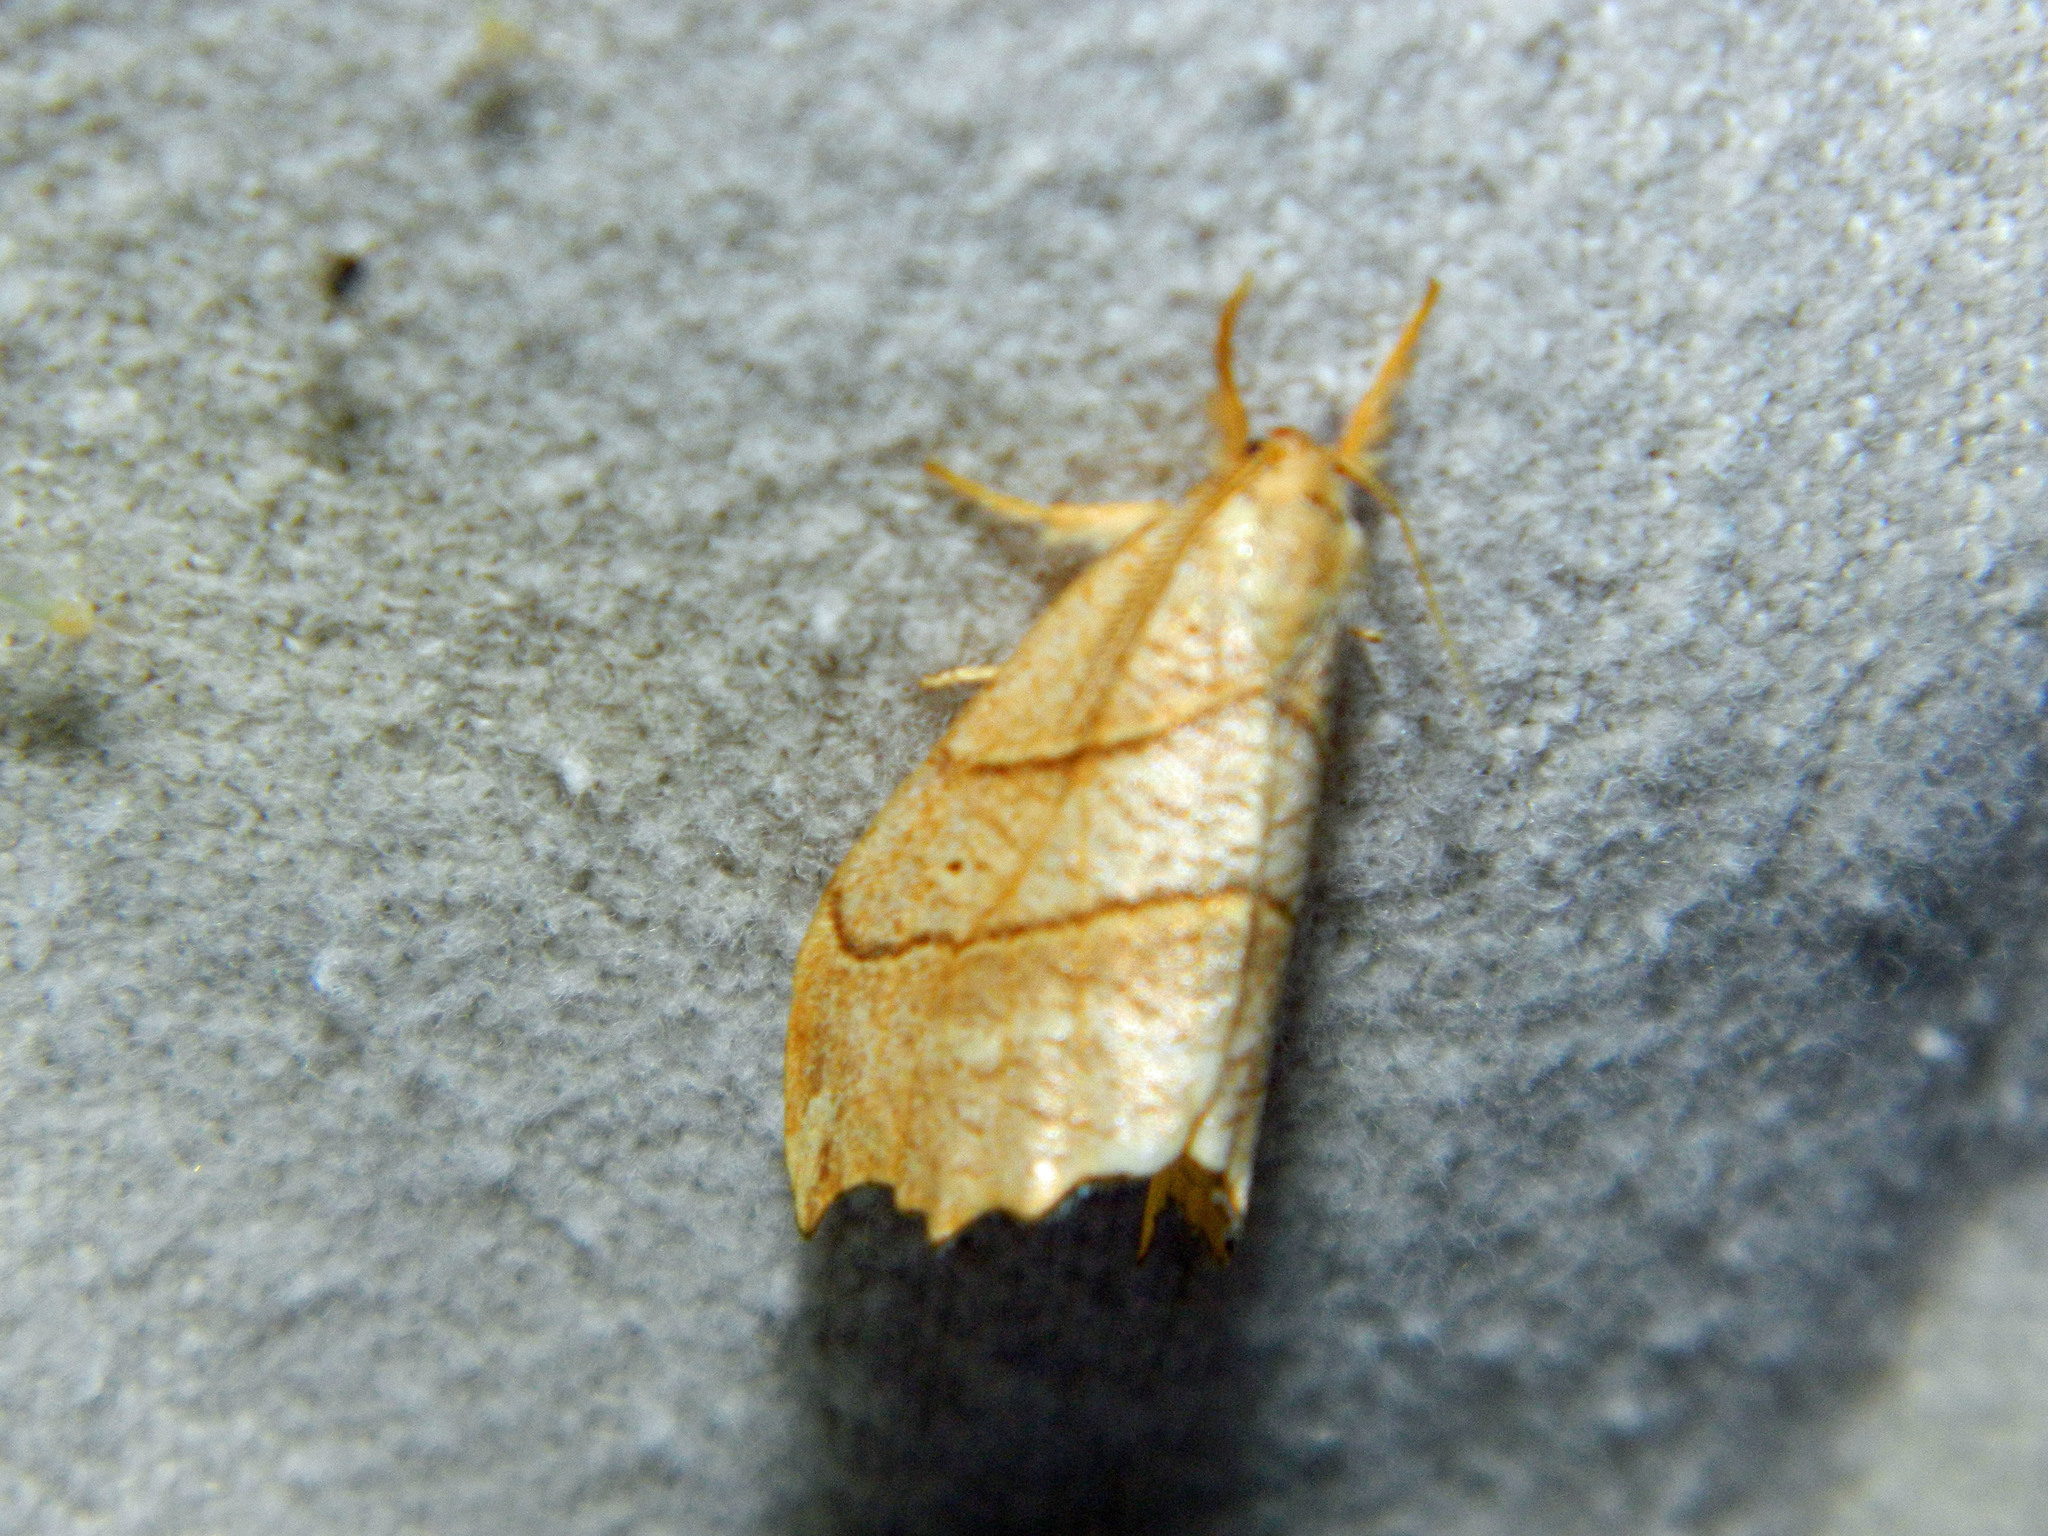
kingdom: Animalia
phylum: Arthropoda
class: Insecta
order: Lepidoptera
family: Drepanidae
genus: Falcaria
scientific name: Falcaria bilineata
